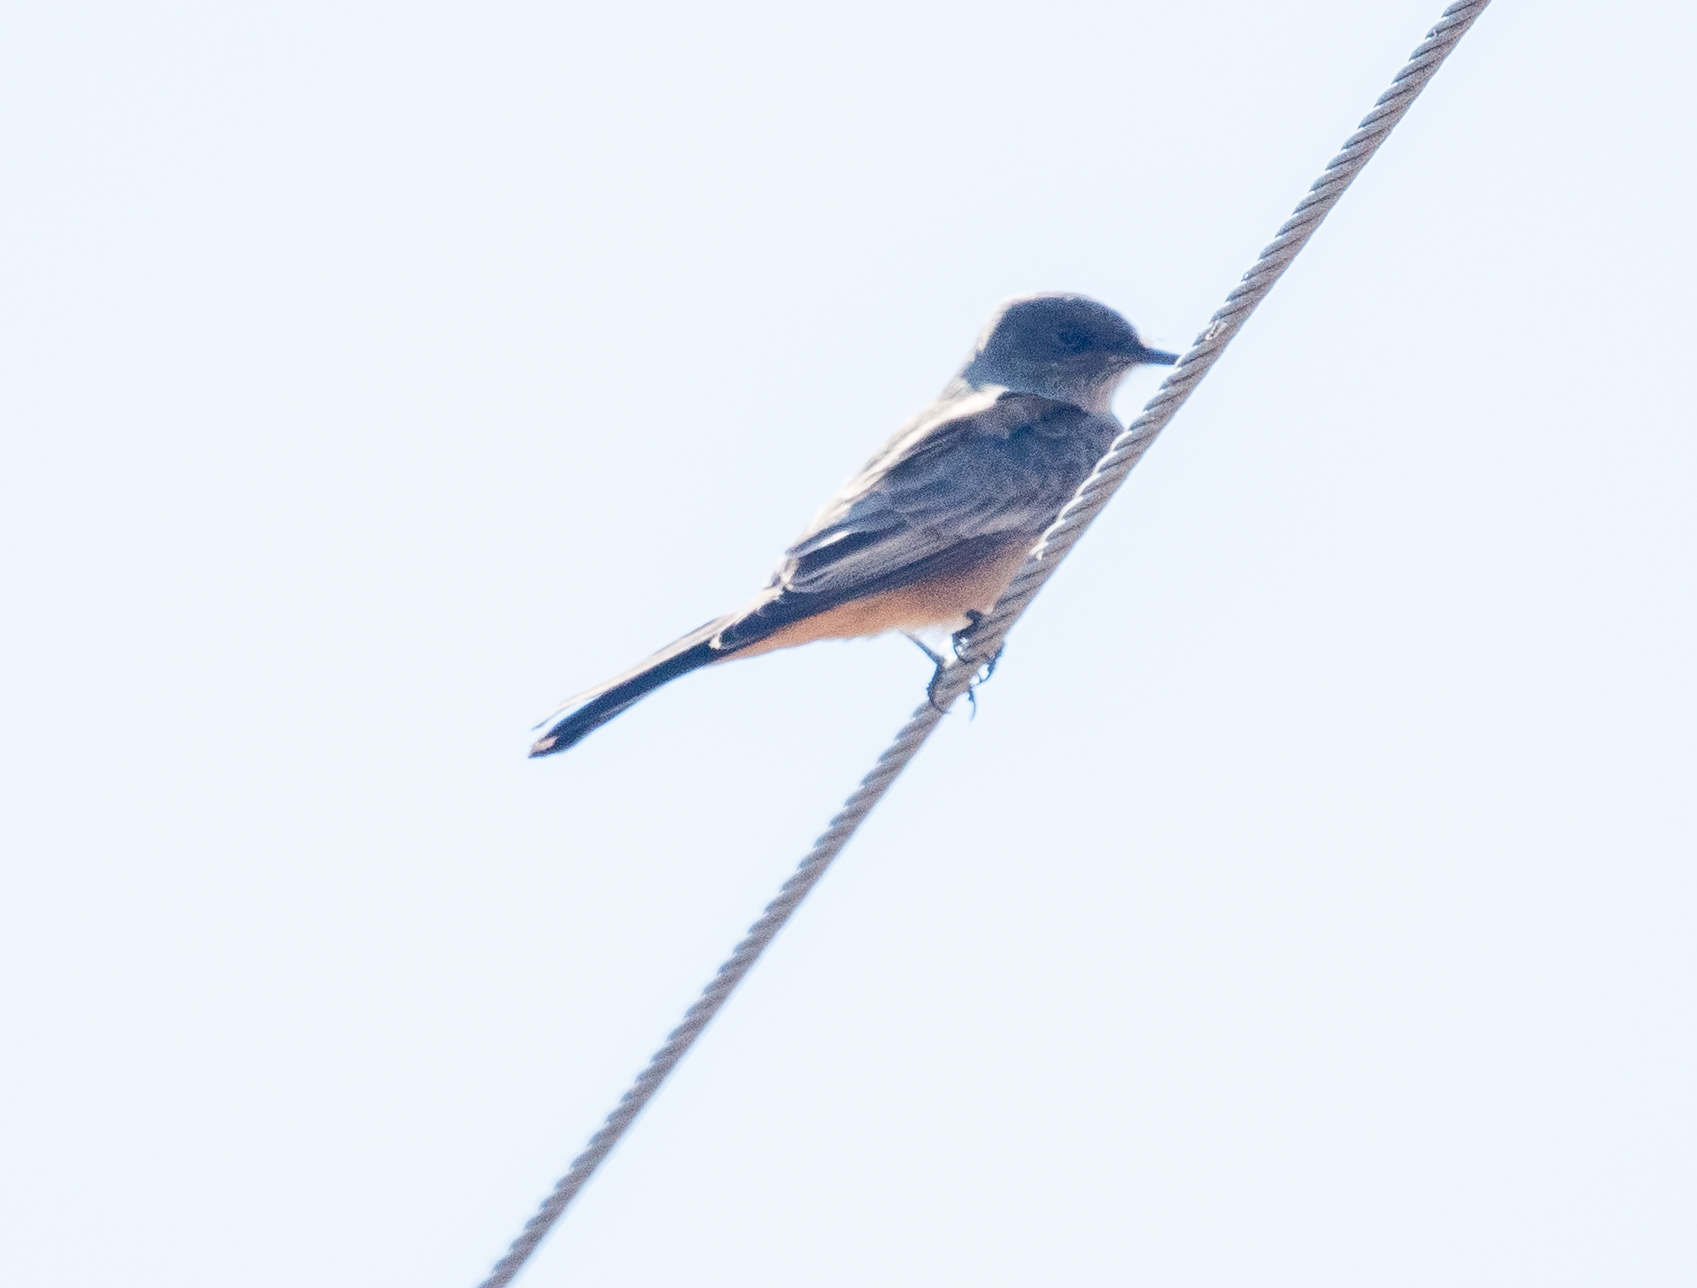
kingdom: Animalia
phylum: Chordata
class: Aves
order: Passeriformes
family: Tyrannidae
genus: Sayornis
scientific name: Sayornis saya
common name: Say's phoebe
